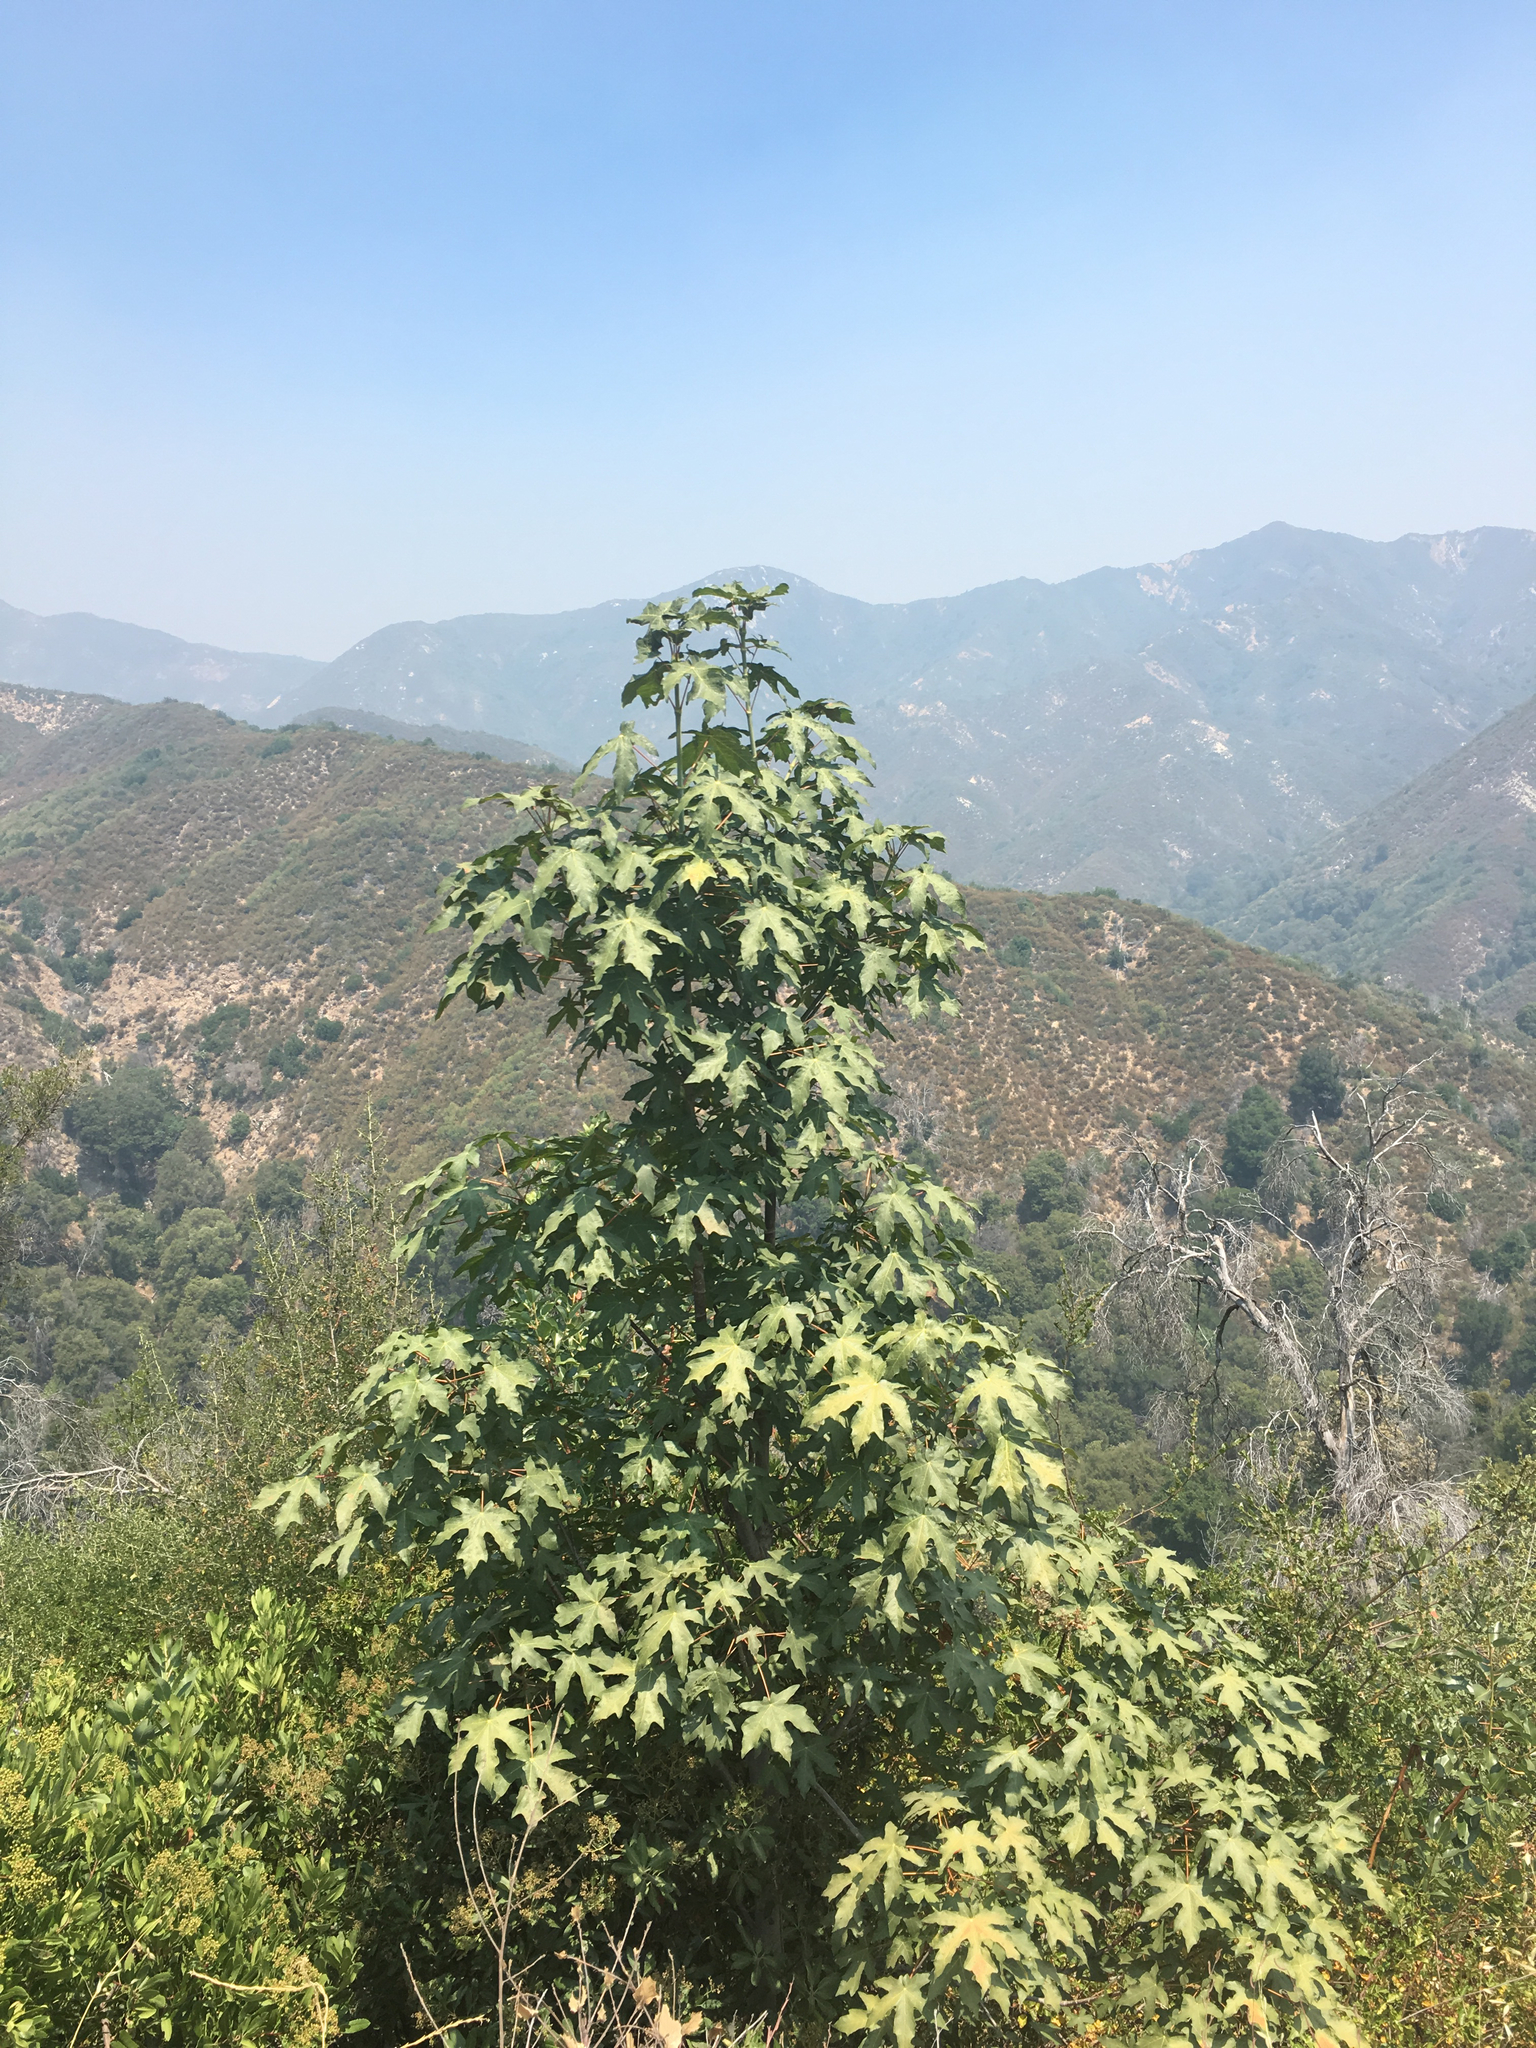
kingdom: Plantae
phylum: Tracheophyta
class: Magnoliopsida
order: Sapindales
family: Sapindaceae
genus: Acer
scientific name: Acer macrophyllum
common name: Oregon maple
